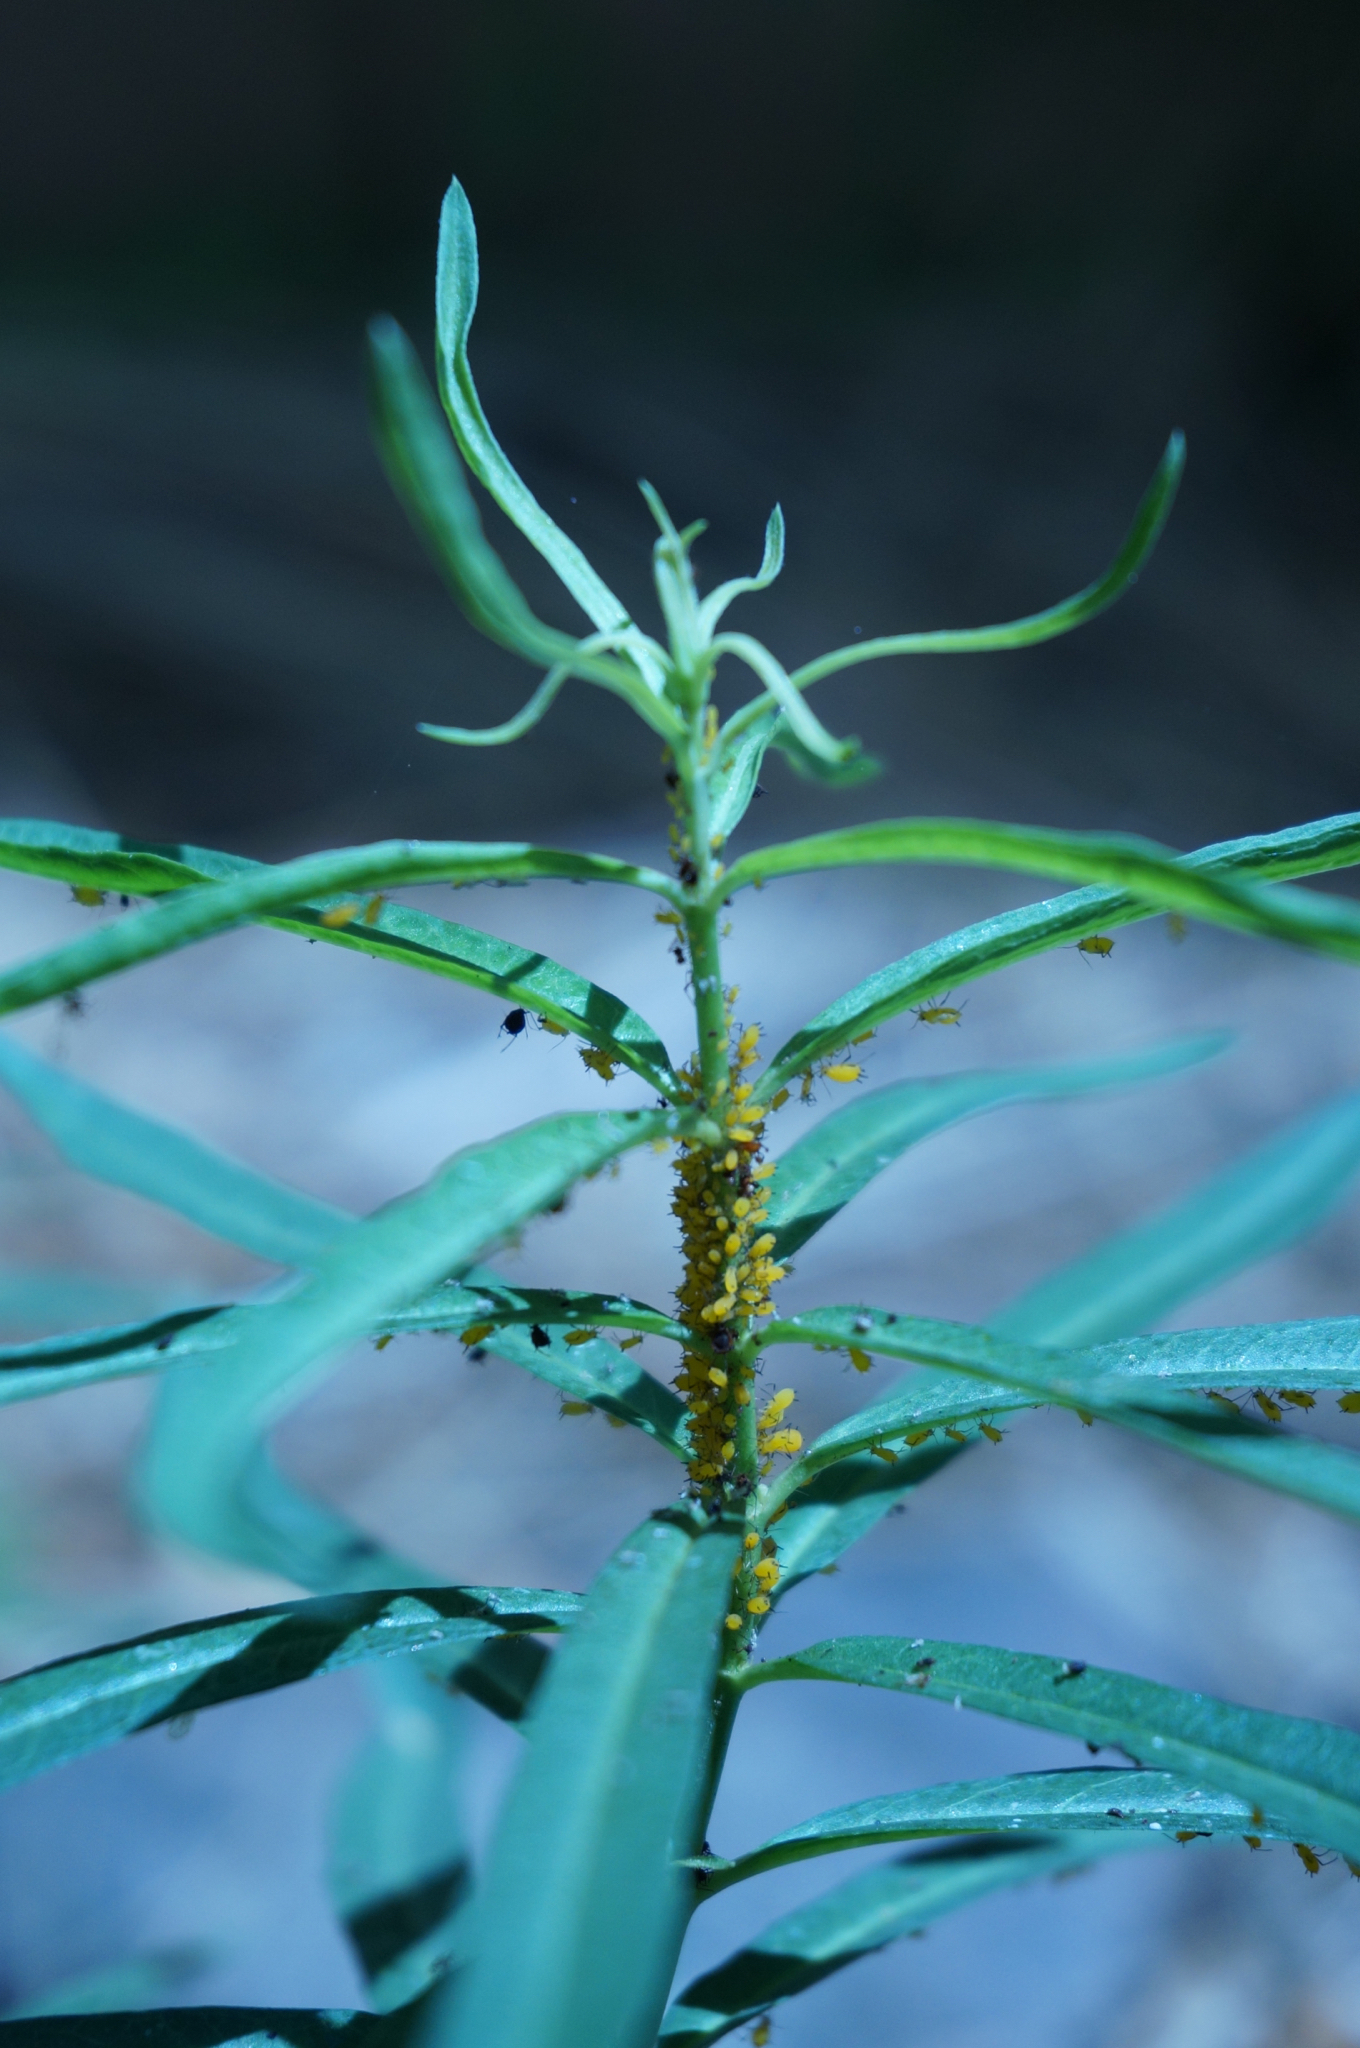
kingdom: Animalia
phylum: Arthropoda
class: Insecta
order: Hemiptera
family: Aphididae
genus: Aphis
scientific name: Aphis nerii
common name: Oleander aphid
